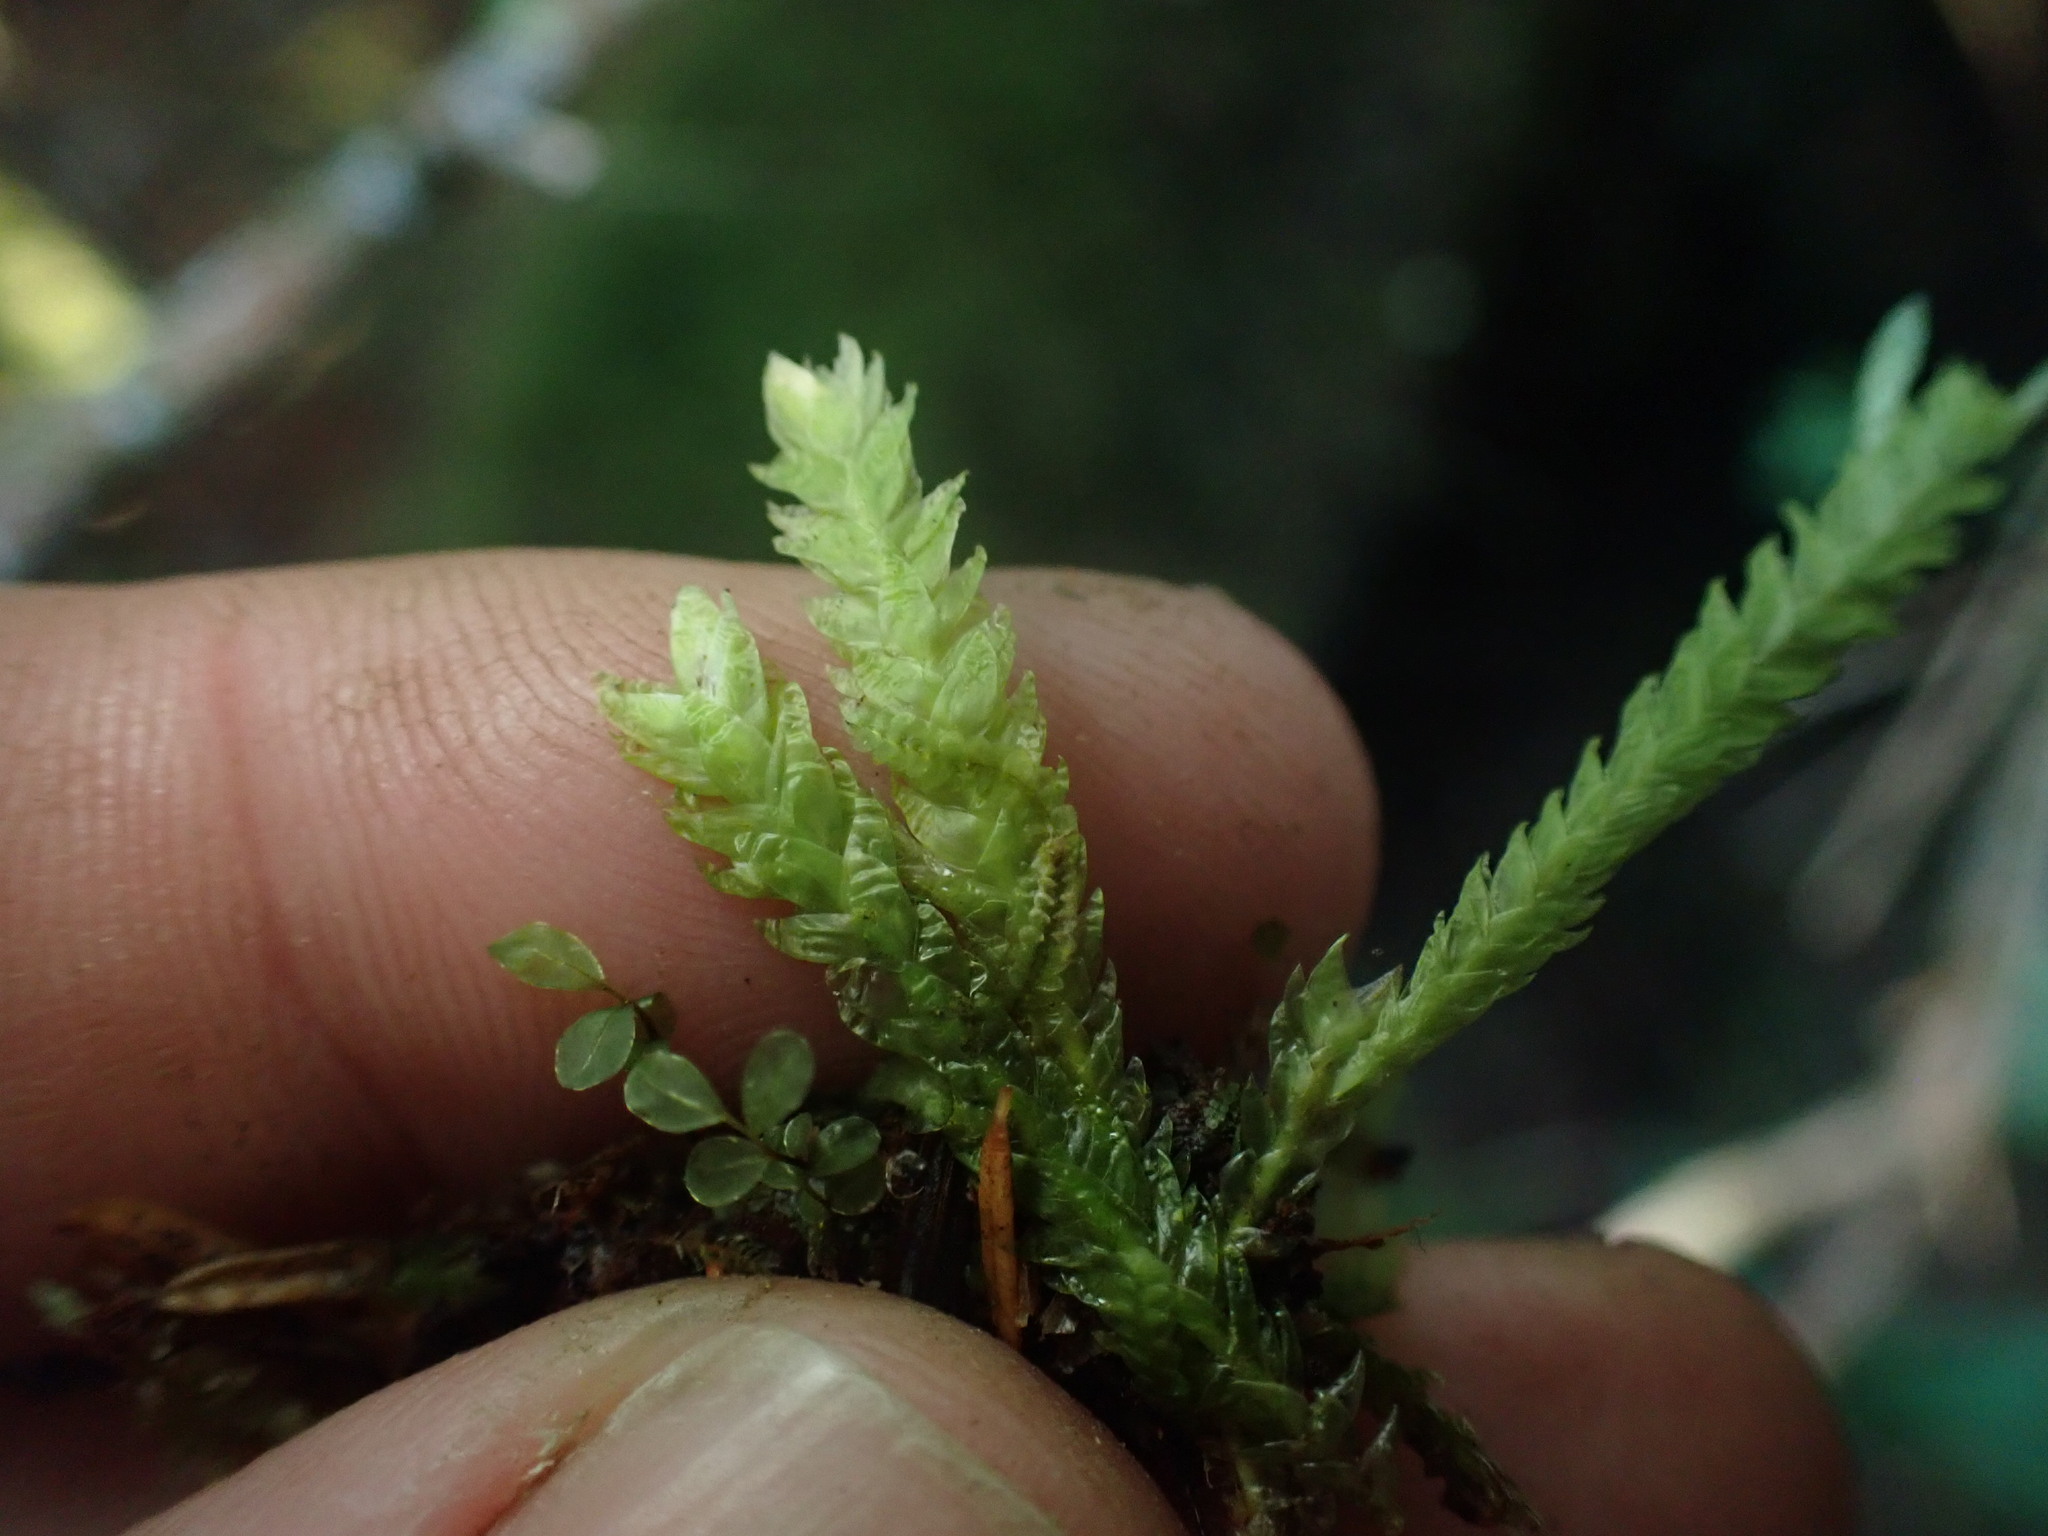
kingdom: Plantae
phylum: Bryophyta
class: Bryopsida
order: Hypnales
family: Plagiotheciaceae
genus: Plagiothecium
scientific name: Plagiothecium undulatum
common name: Waved silk-moss
